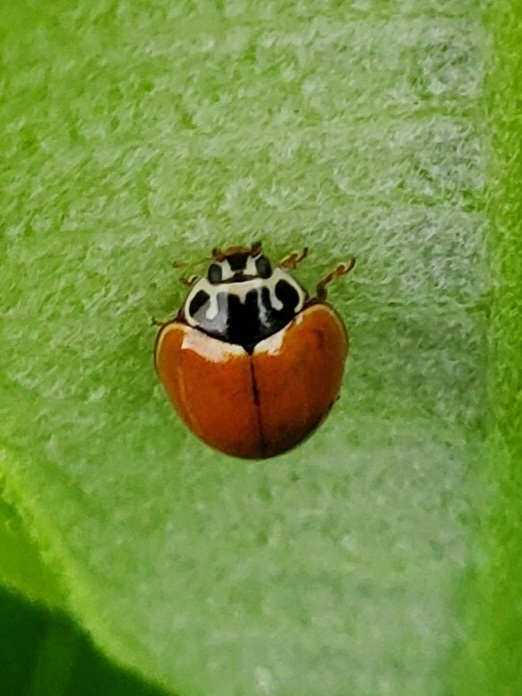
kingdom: Animalia
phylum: Arthropoda
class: Insecta
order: Coleoptera
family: Coccinellidae
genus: Cycloneda
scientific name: Cycloneda munda
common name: Polished lady beetle
